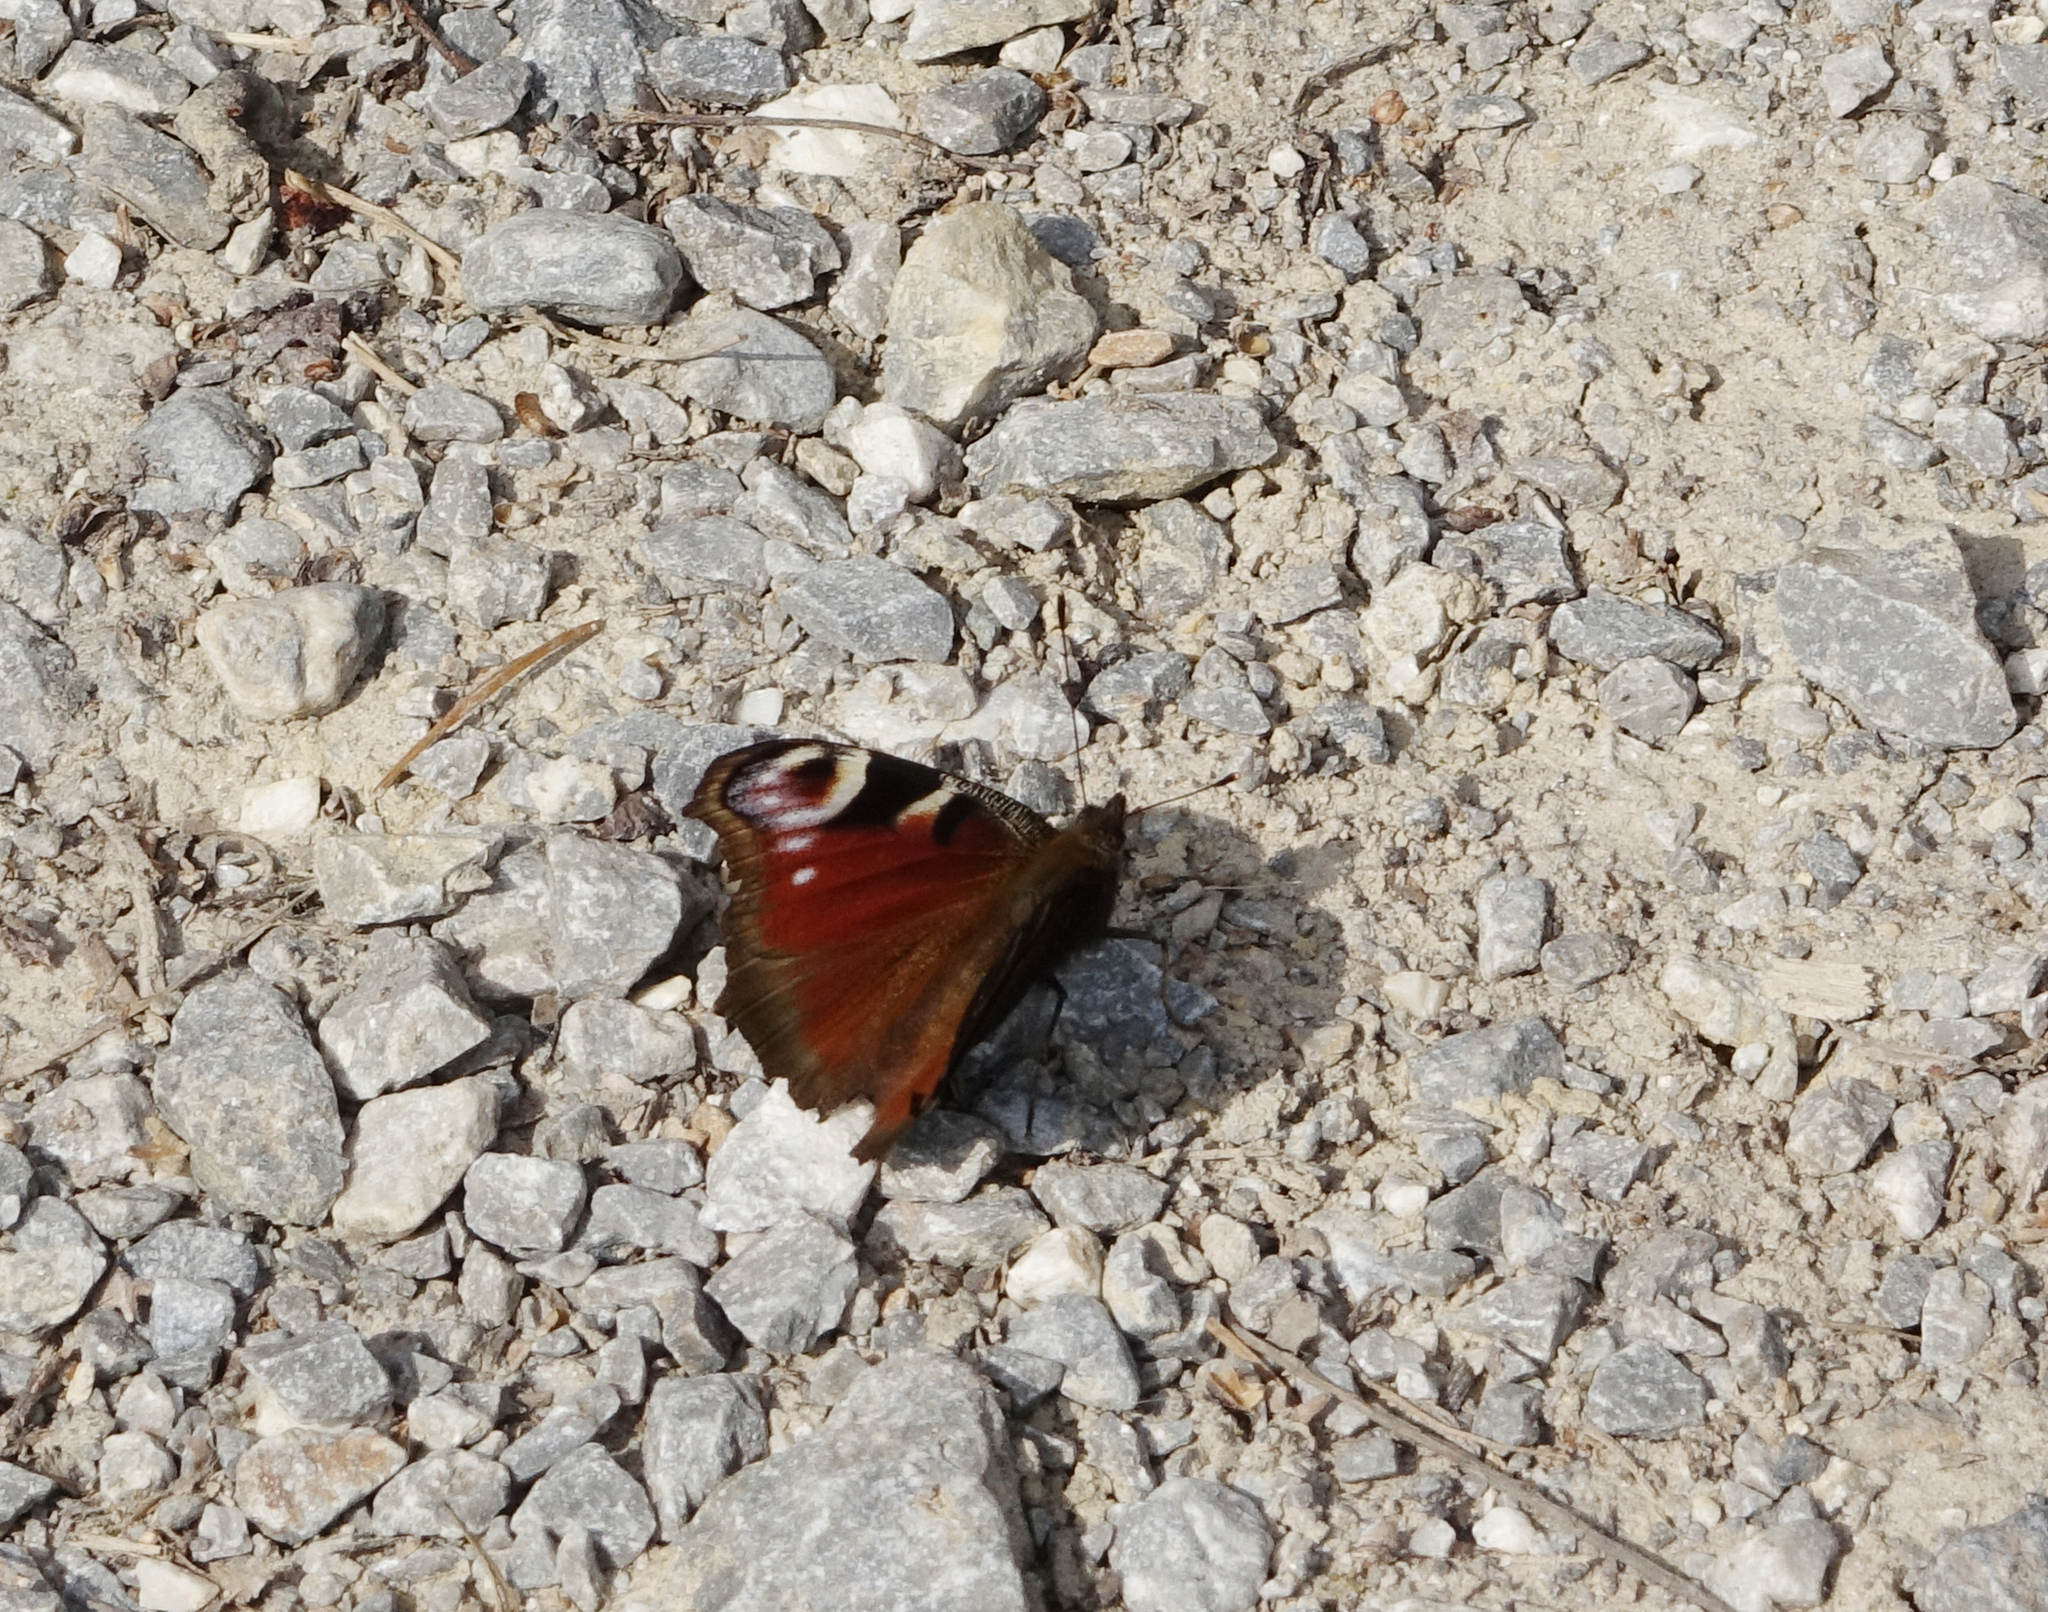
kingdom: Animalia
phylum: Arthropoda
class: Insecta
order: Lepidoptera
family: Nymphalidae
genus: Aglais
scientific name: Aglais io
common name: Peacock
